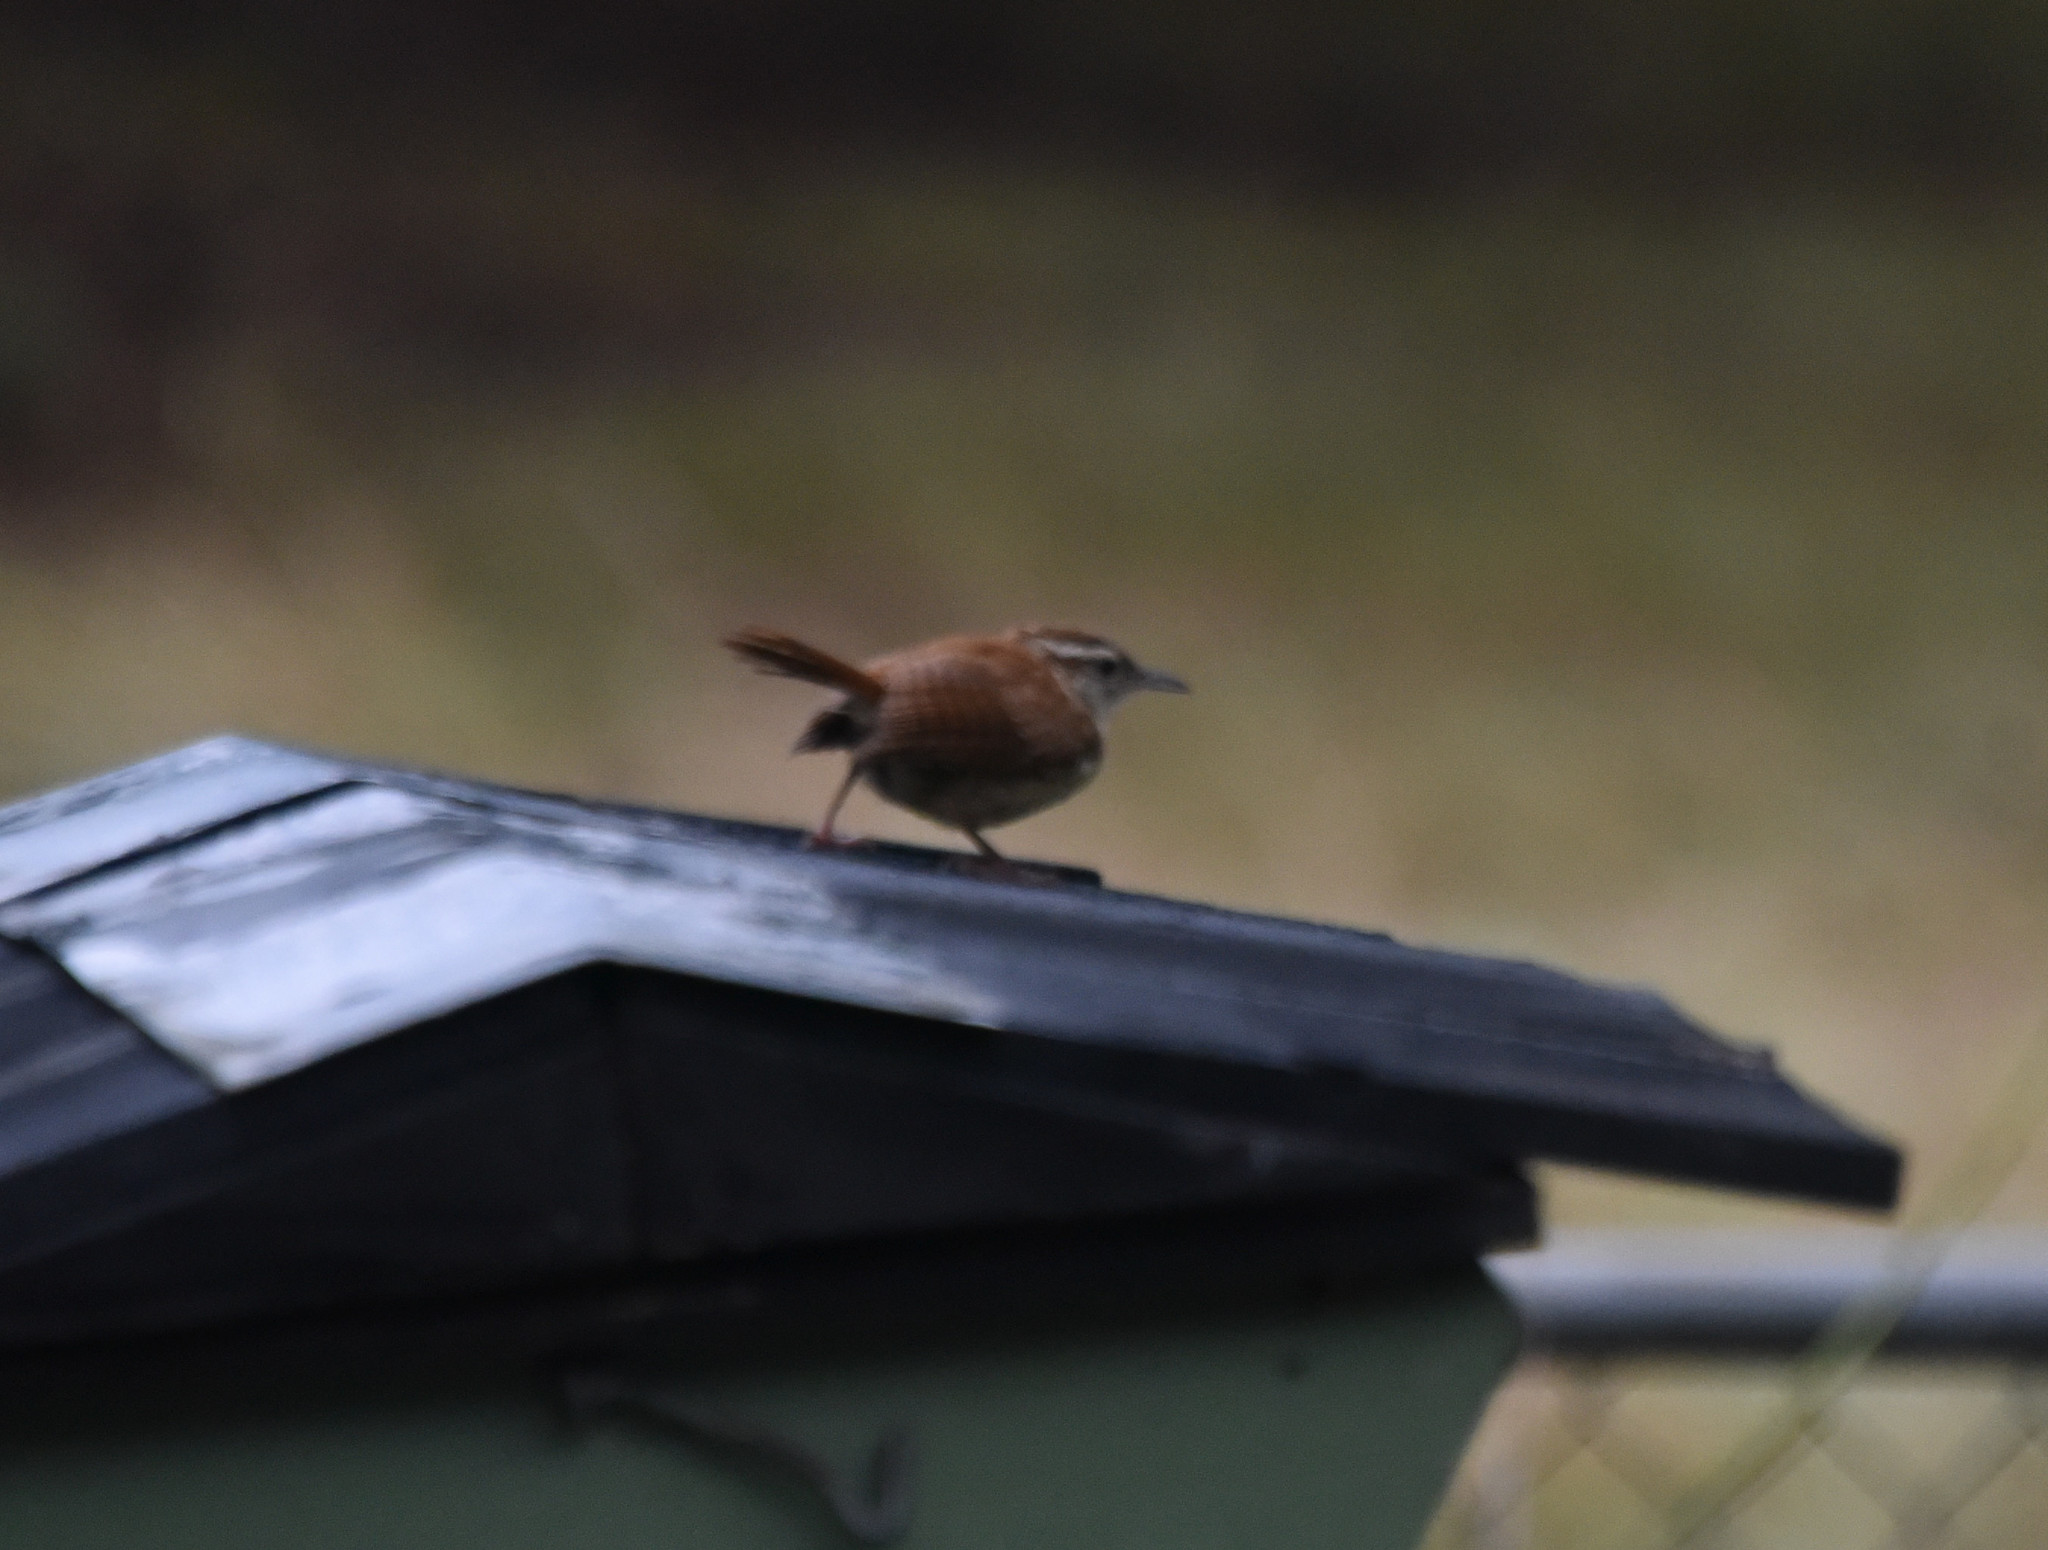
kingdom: Animalia
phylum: Chordata
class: Aves
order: Passeriformes
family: Troglodytidae
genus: Thryothorus
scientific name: Thryothorus ludovicianus
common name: Carolina wren
